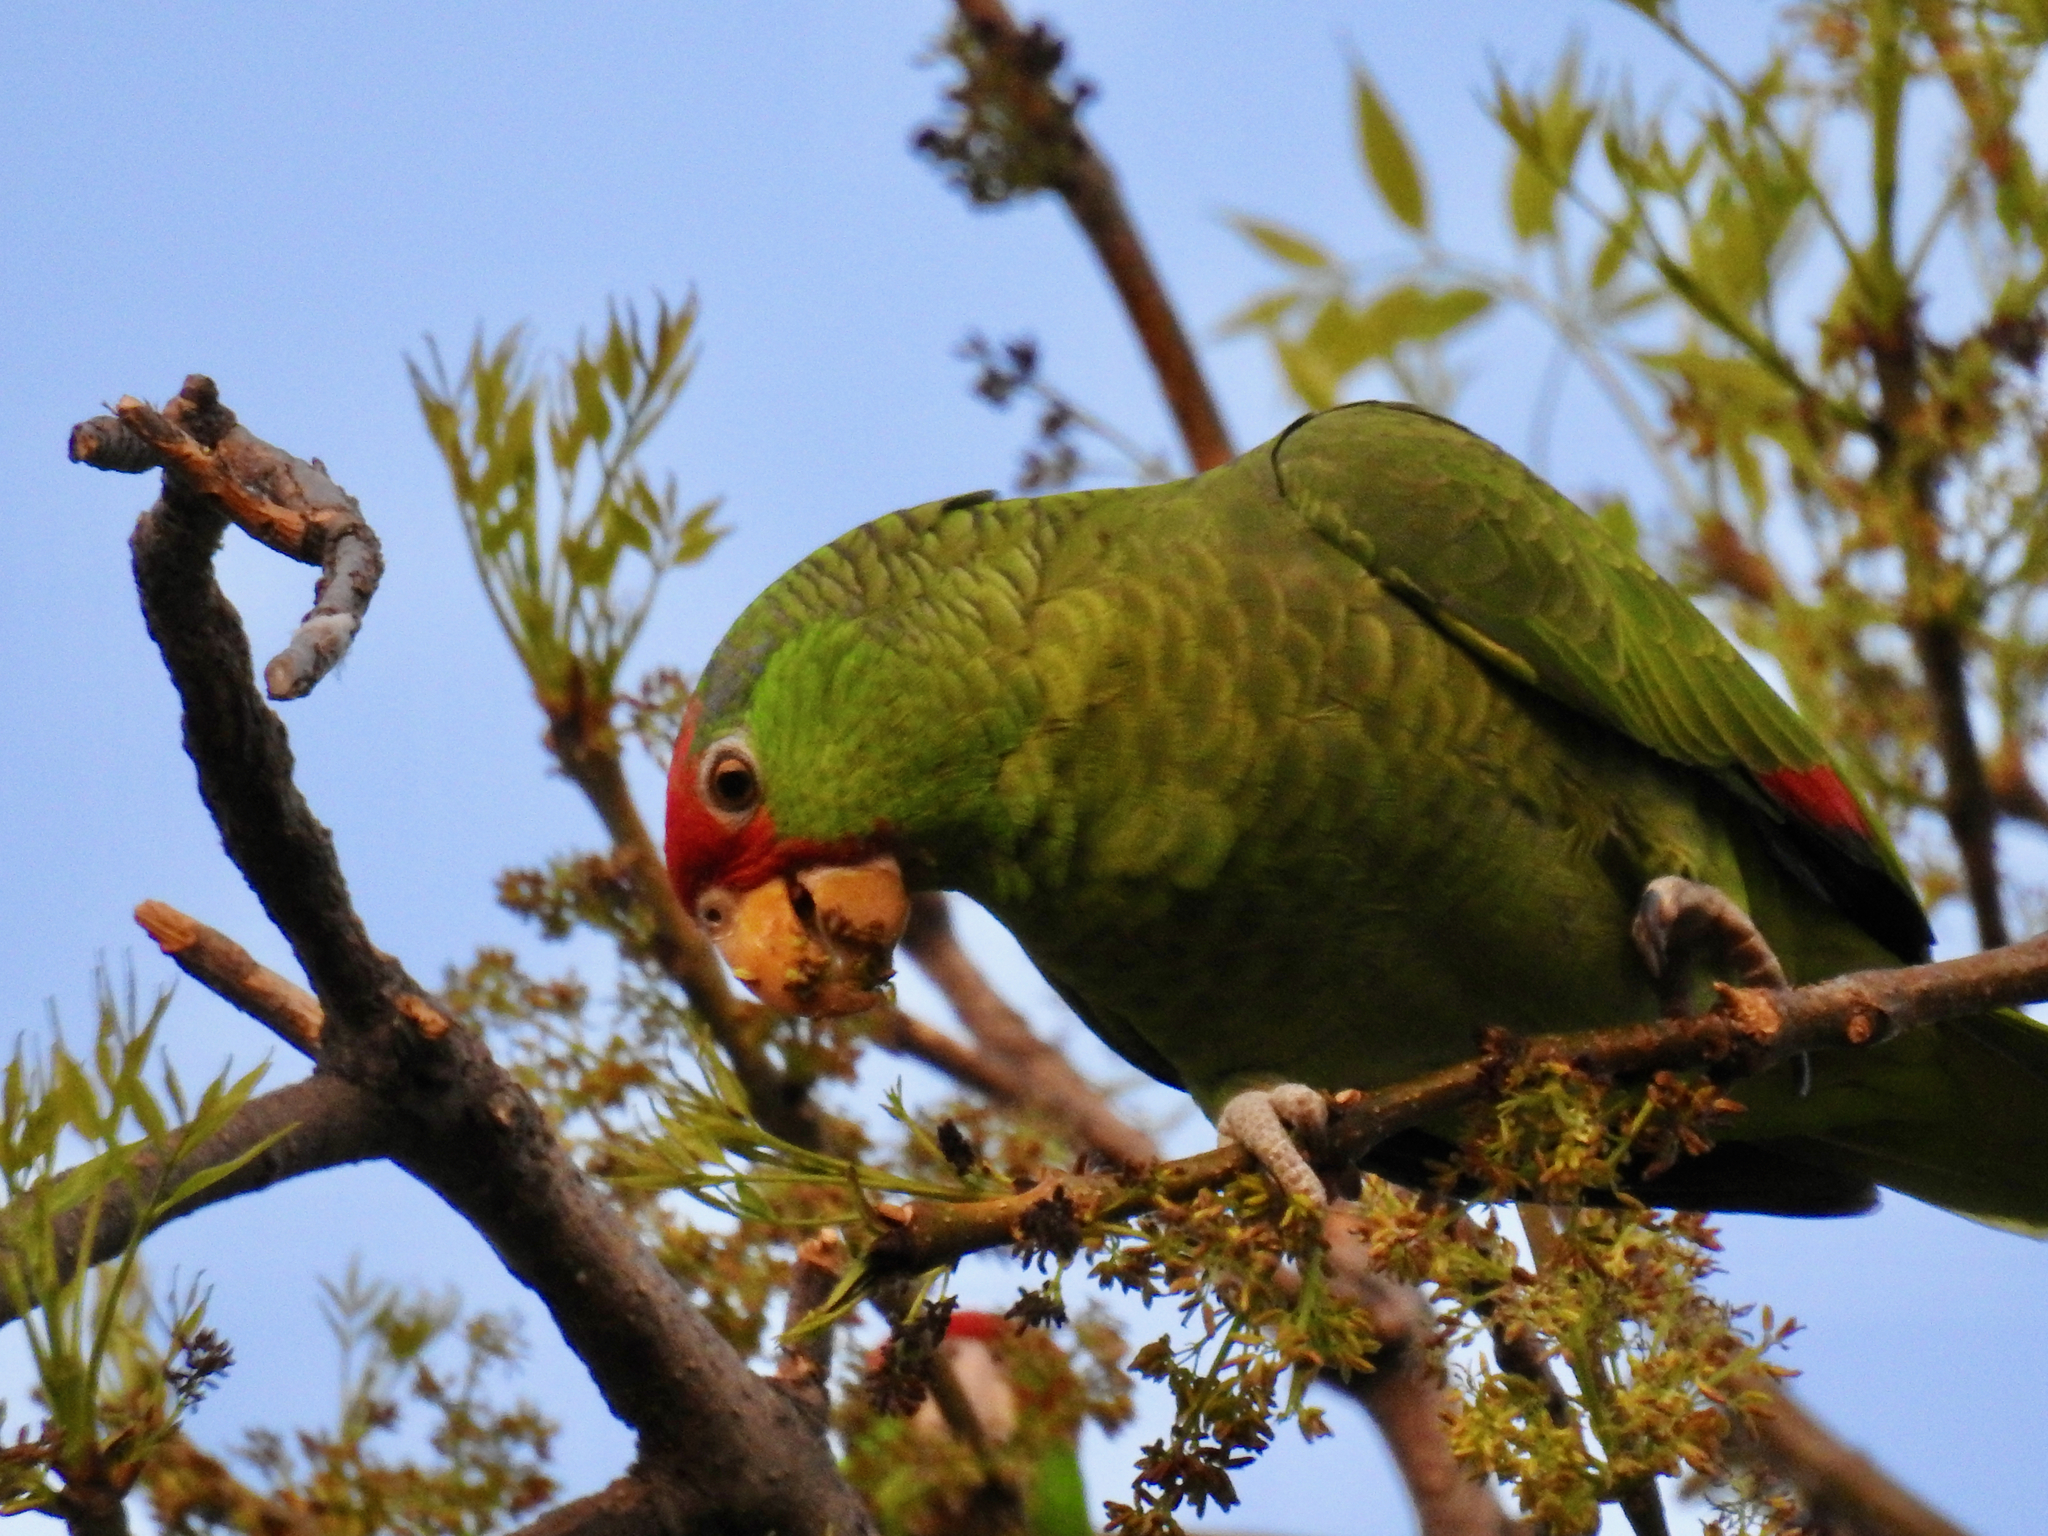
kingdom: Animalia
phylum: Chordata
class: Aves
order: Psittaciformes
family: Psittacidae
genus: Amazona
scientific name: Amazona viridigenalis
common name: Red-crowned amazon
